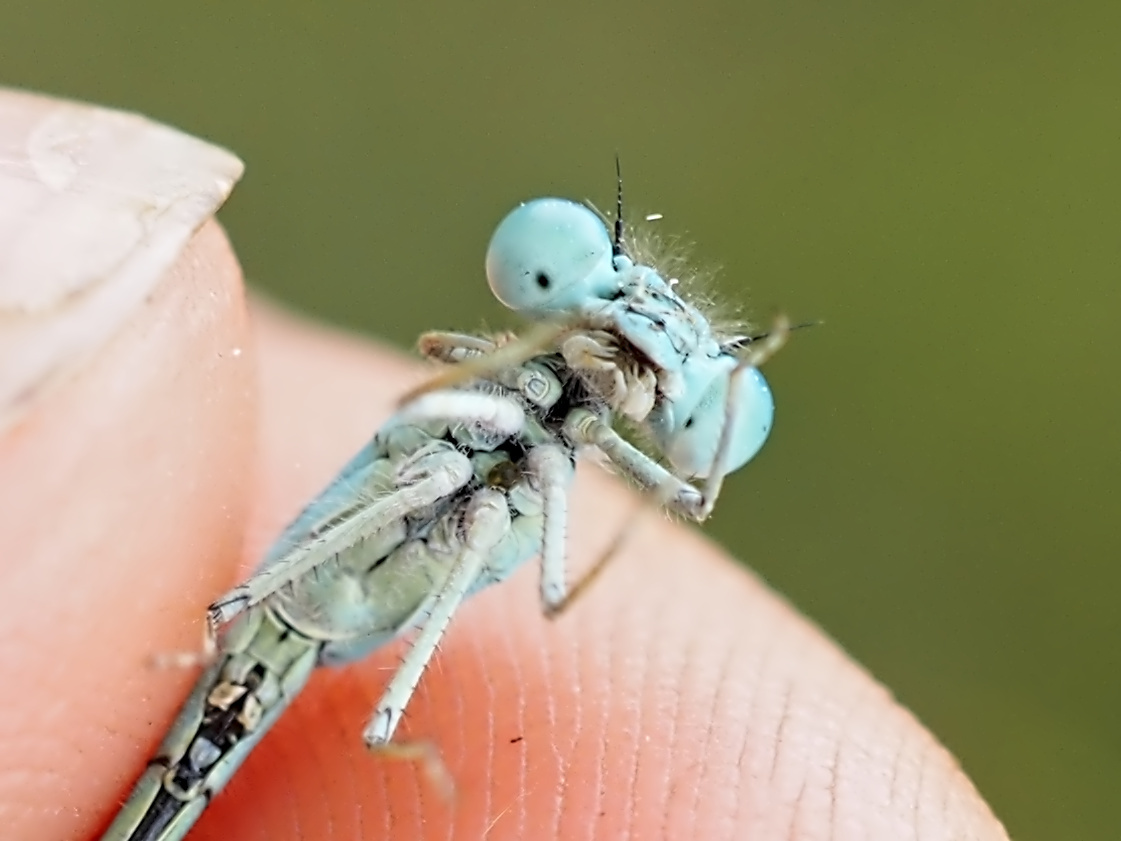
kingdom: Animalia
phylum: Arthropoda
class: Insecta
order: Odonata
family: Coenagrionidae
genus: Coenagrion
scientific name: Coenagrion scitulum
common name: Dainty bluet
